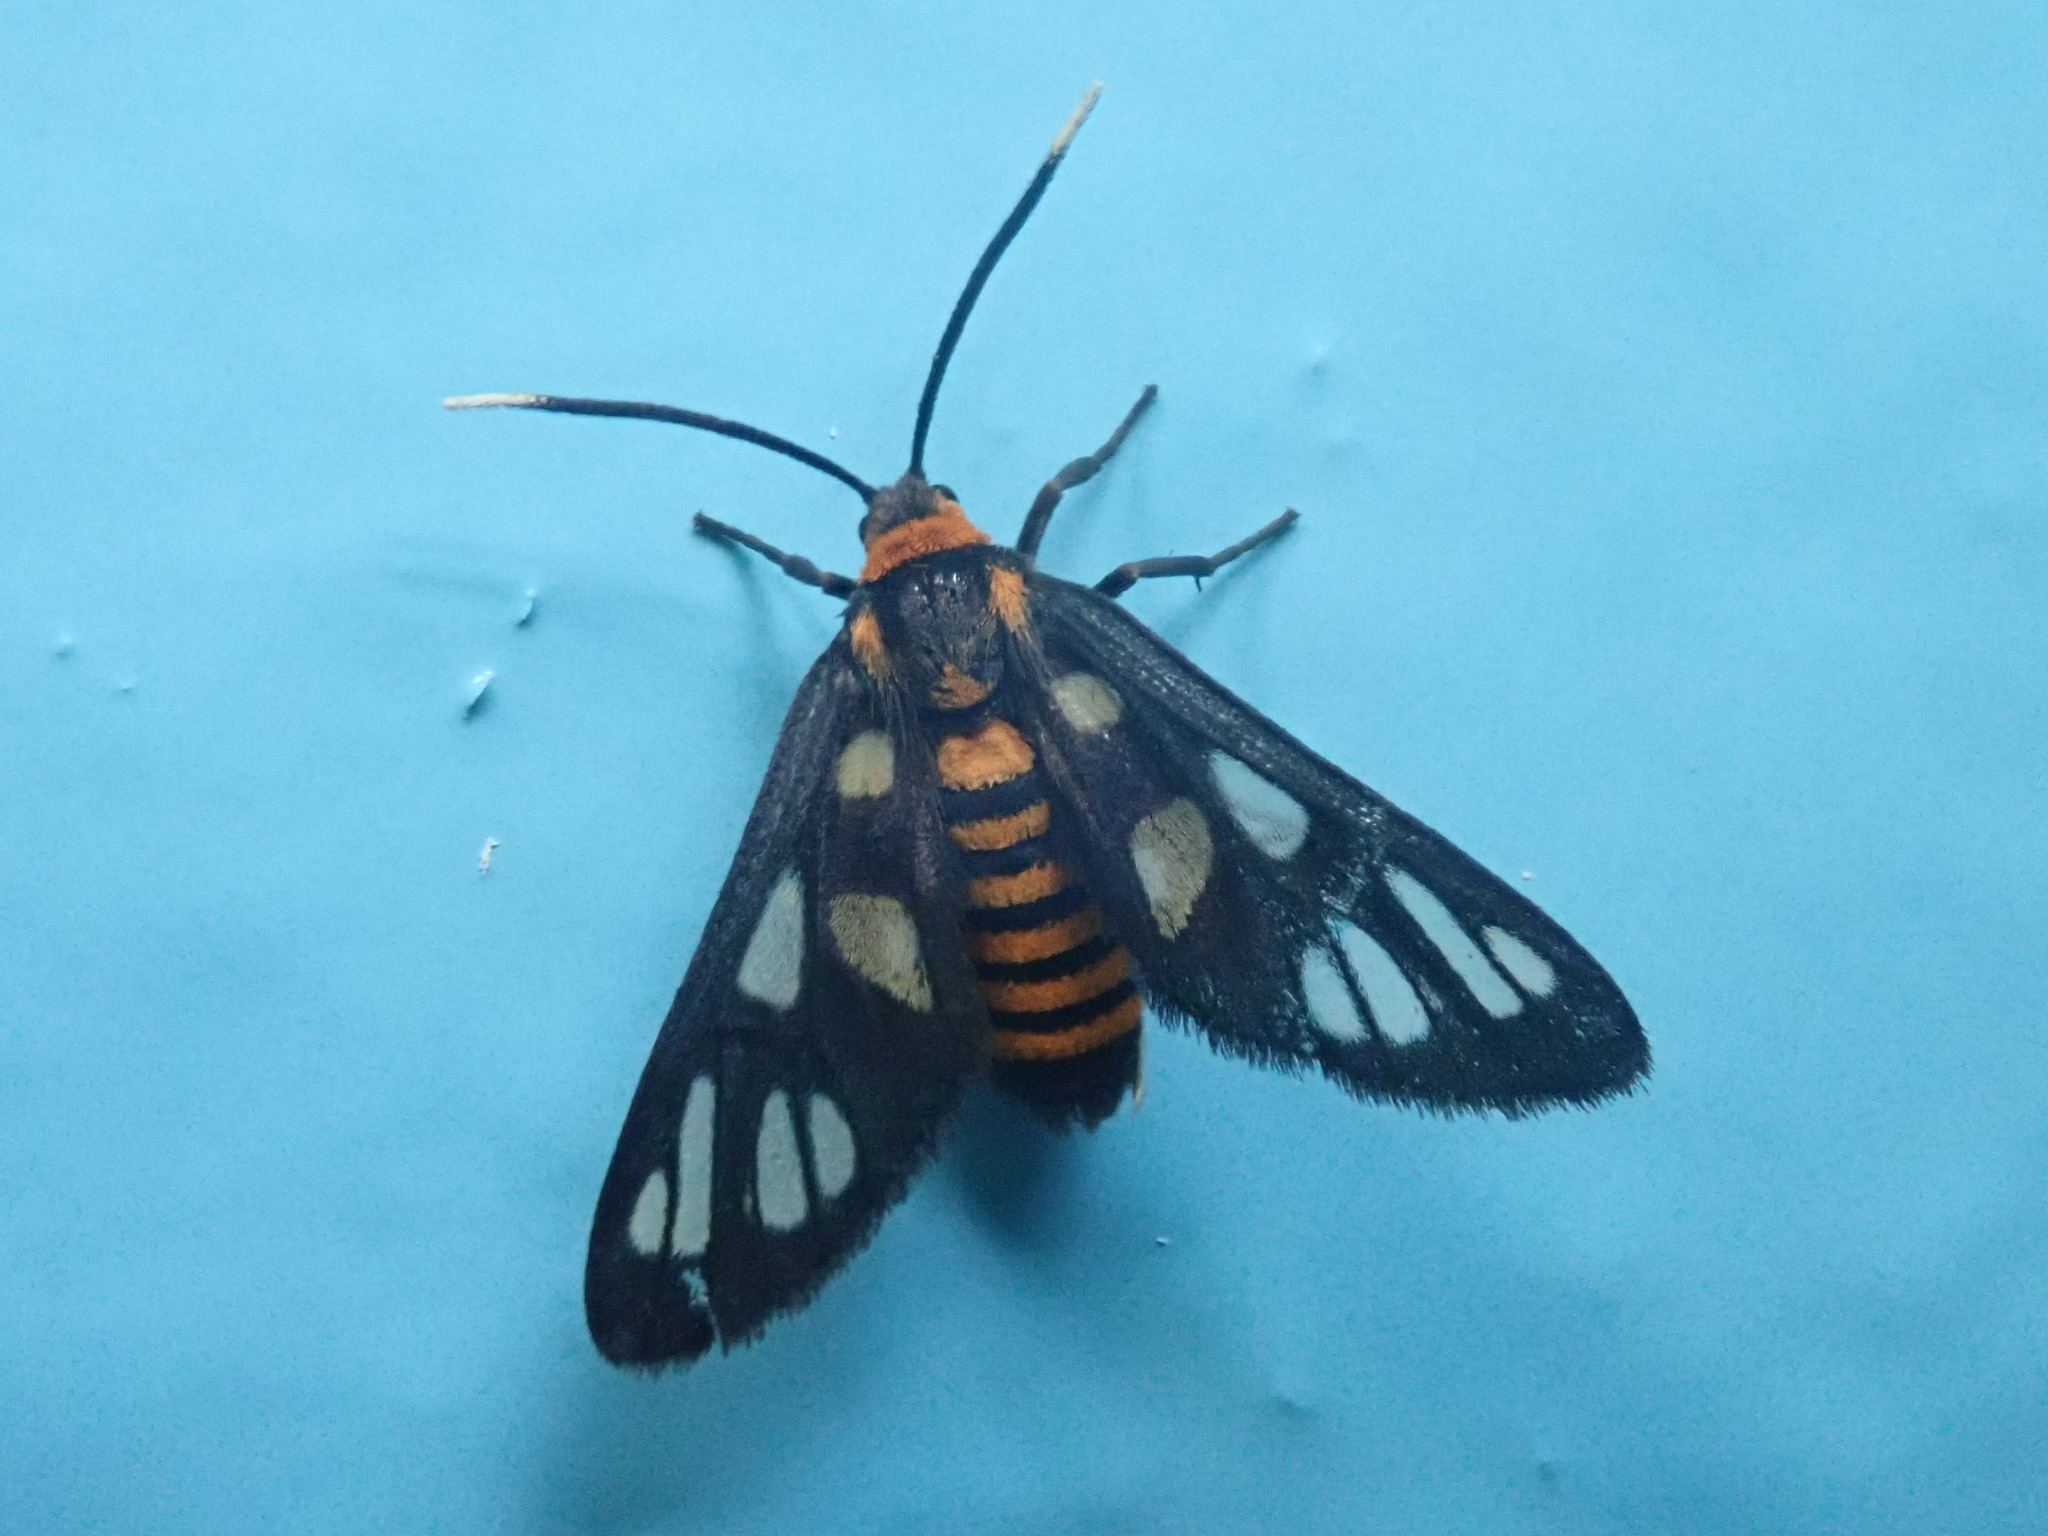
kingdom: Animalia
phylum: Arthropoda
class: Insecta
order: Lepidoptera
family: Erebidae
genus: Amata
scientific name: Amata huebneri
